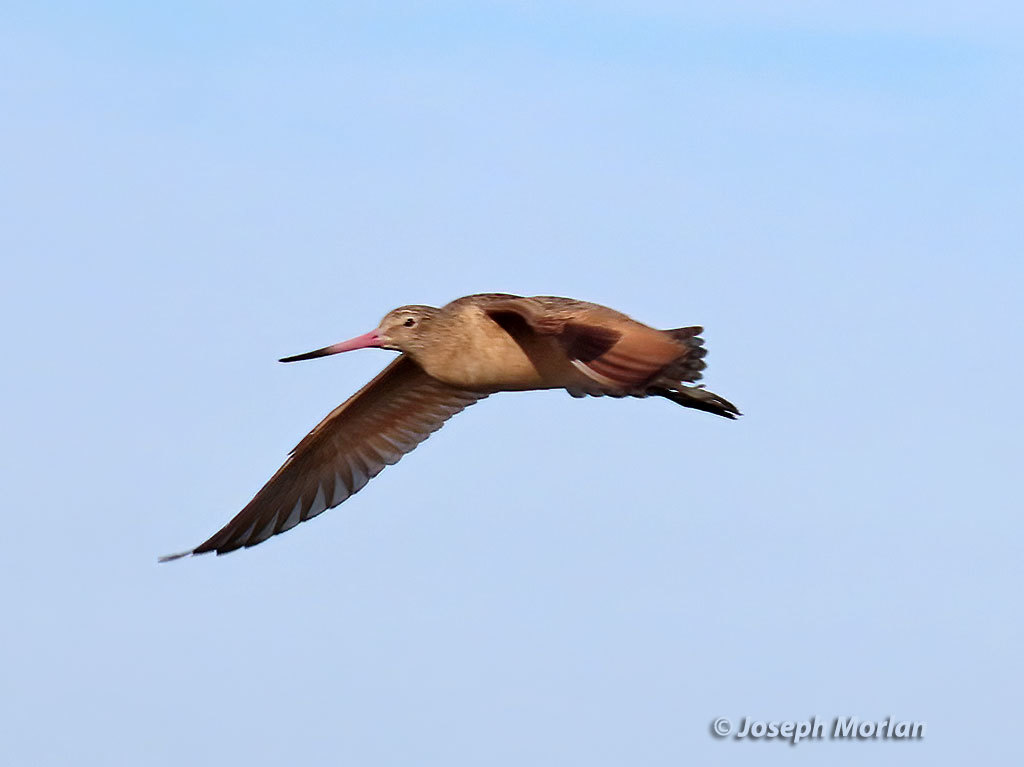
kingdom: Animalia
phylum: Chordata
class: Aves
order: Charadriiformes
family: Scolopacidae
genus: Limosa
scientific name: Limosa fedoa
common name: Marbled godwit
